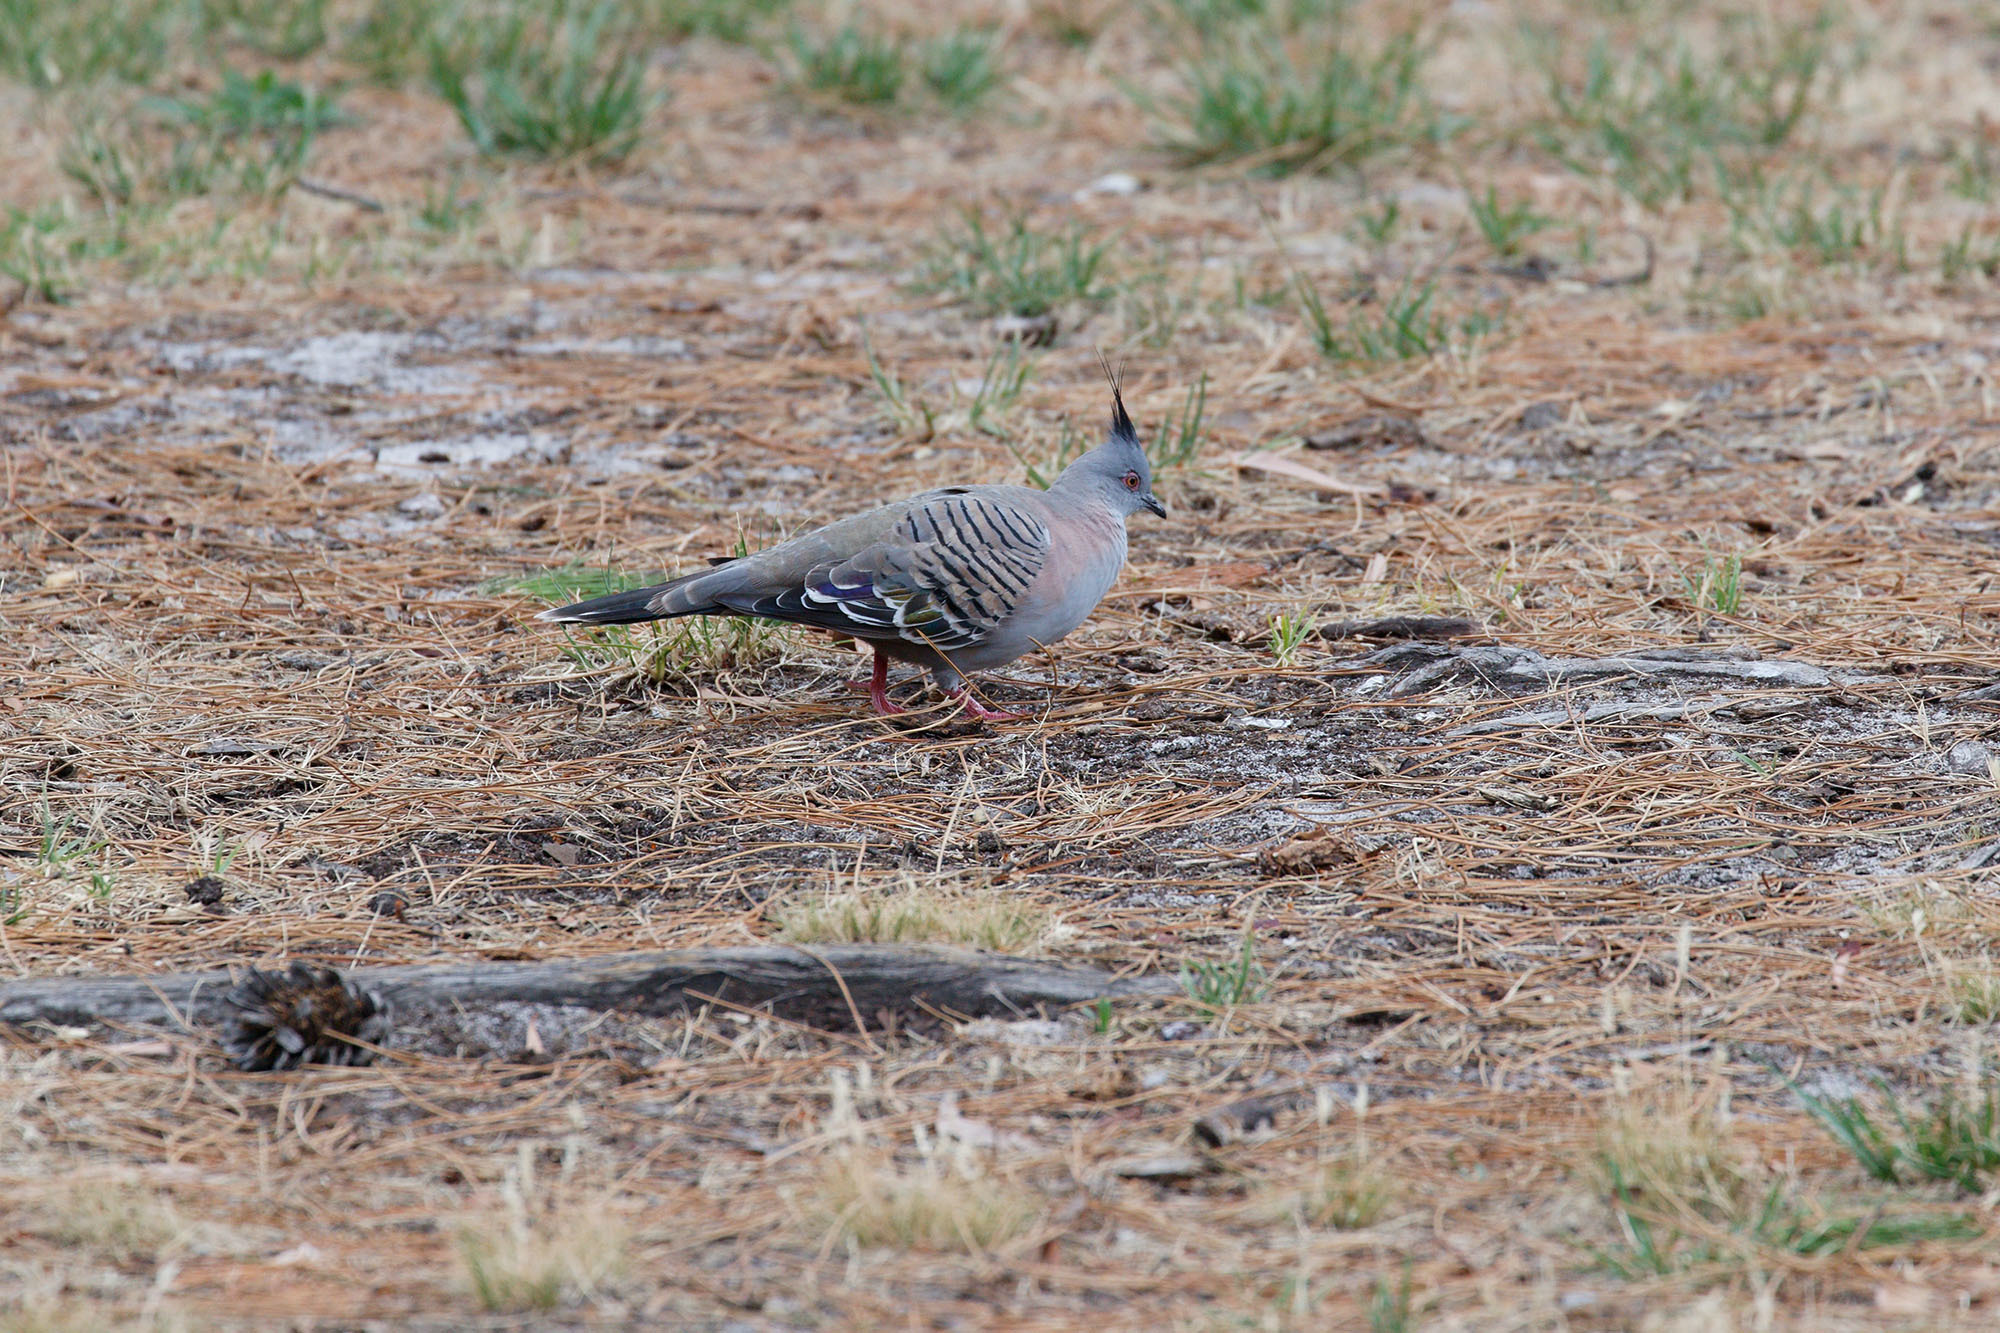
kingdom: Animalia
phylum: Chordata
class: Aves
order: Columbiformes
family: Columbidae
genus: Ocyphaps
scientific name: Ocyphaps lophotes
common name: Crested pigeon
